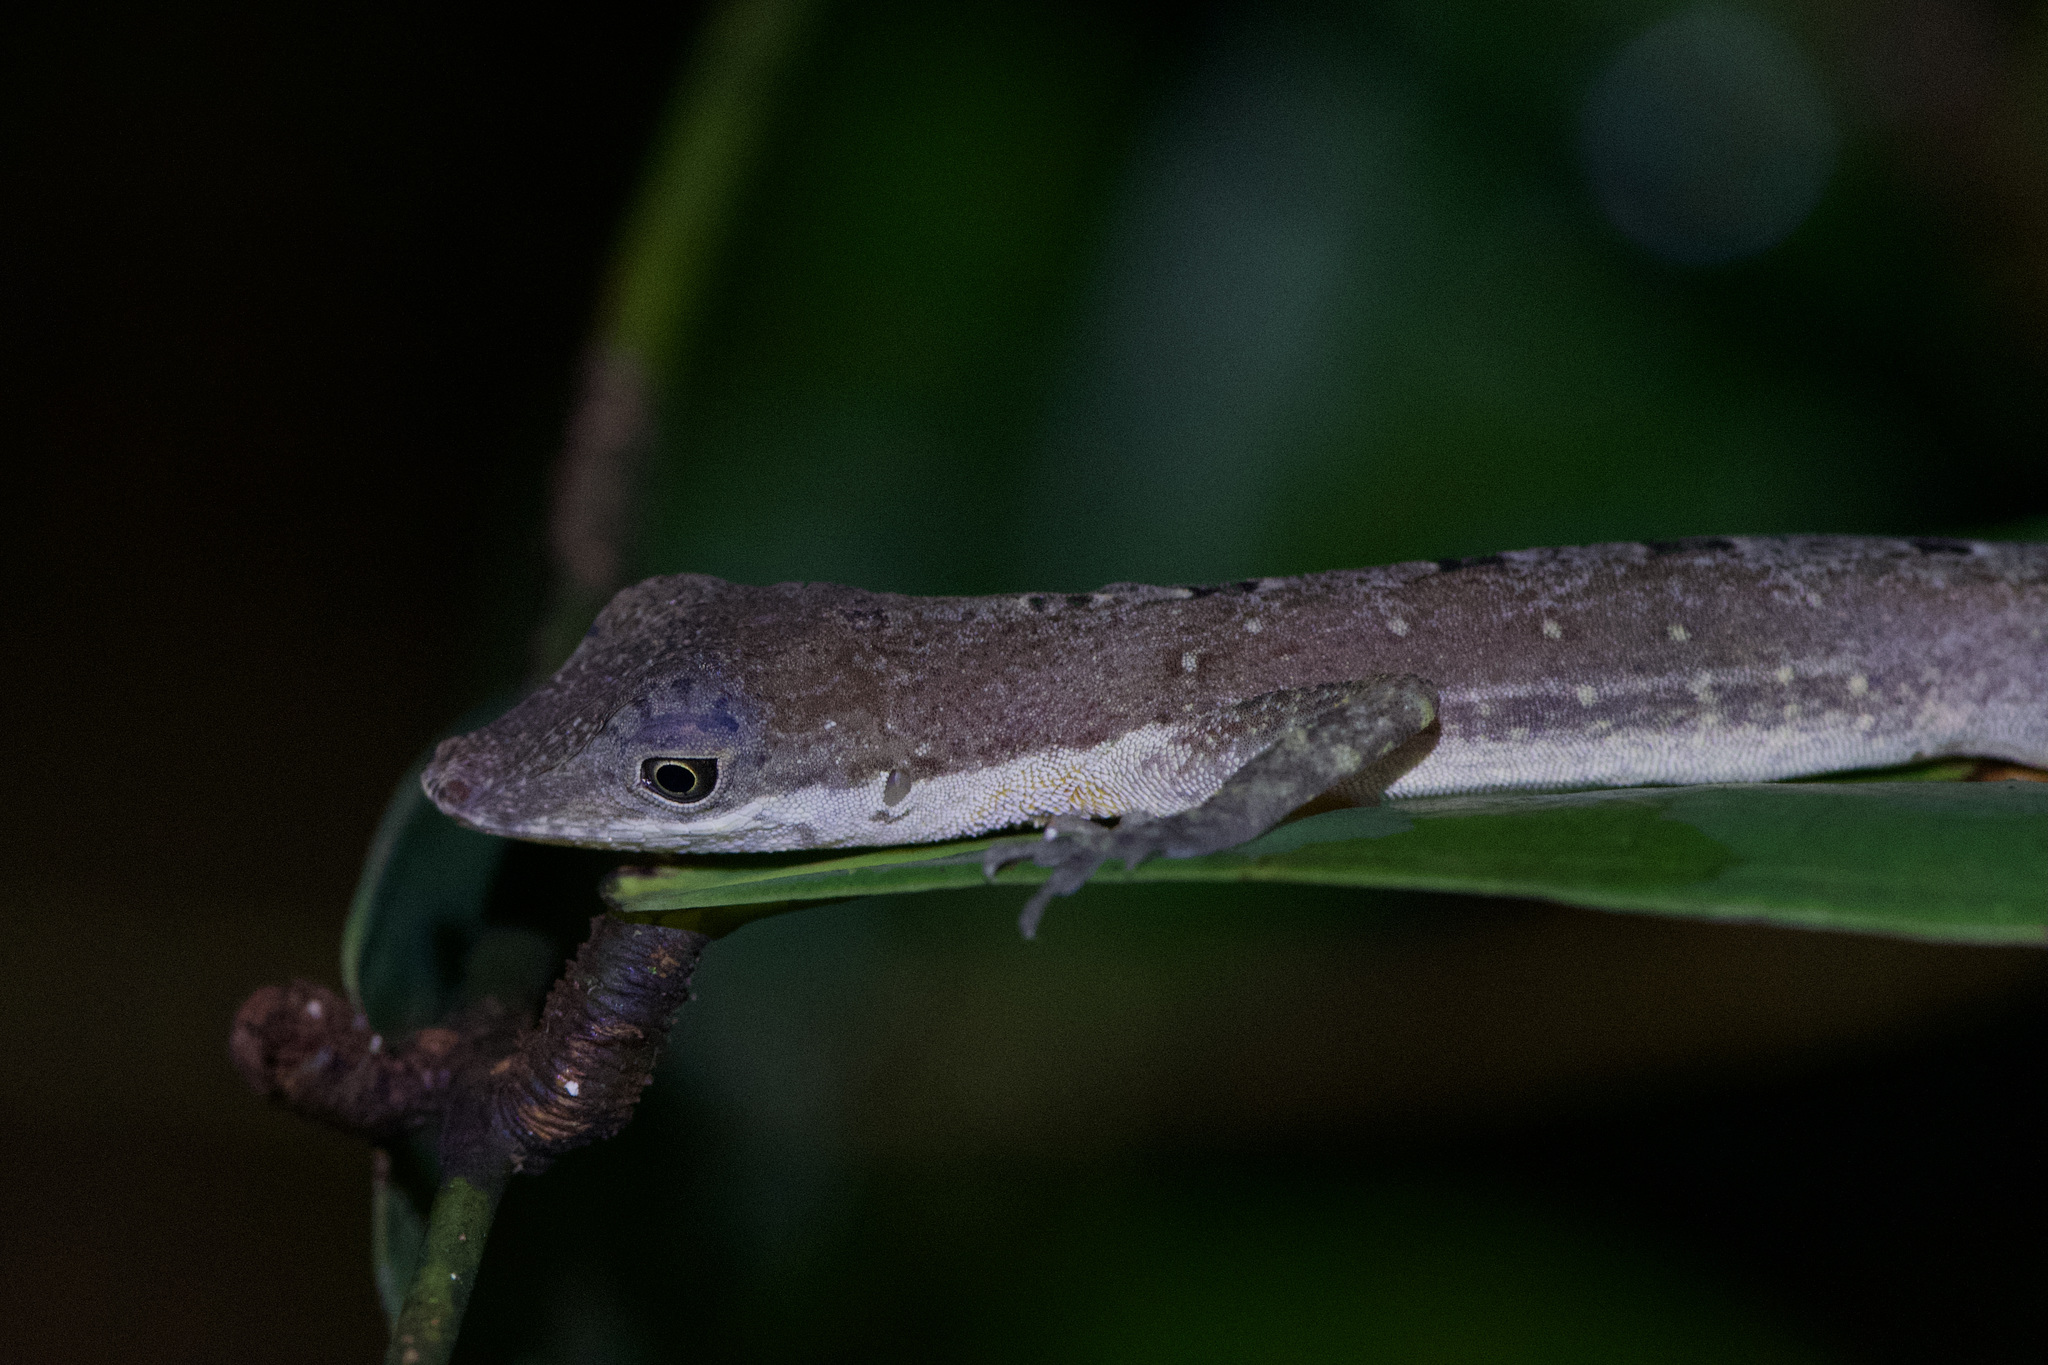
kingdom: Animalia
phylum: Chordata
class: Squamata
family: Dactyloidae
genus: Anolis
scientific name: Anolis limifrons
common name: Border anole
